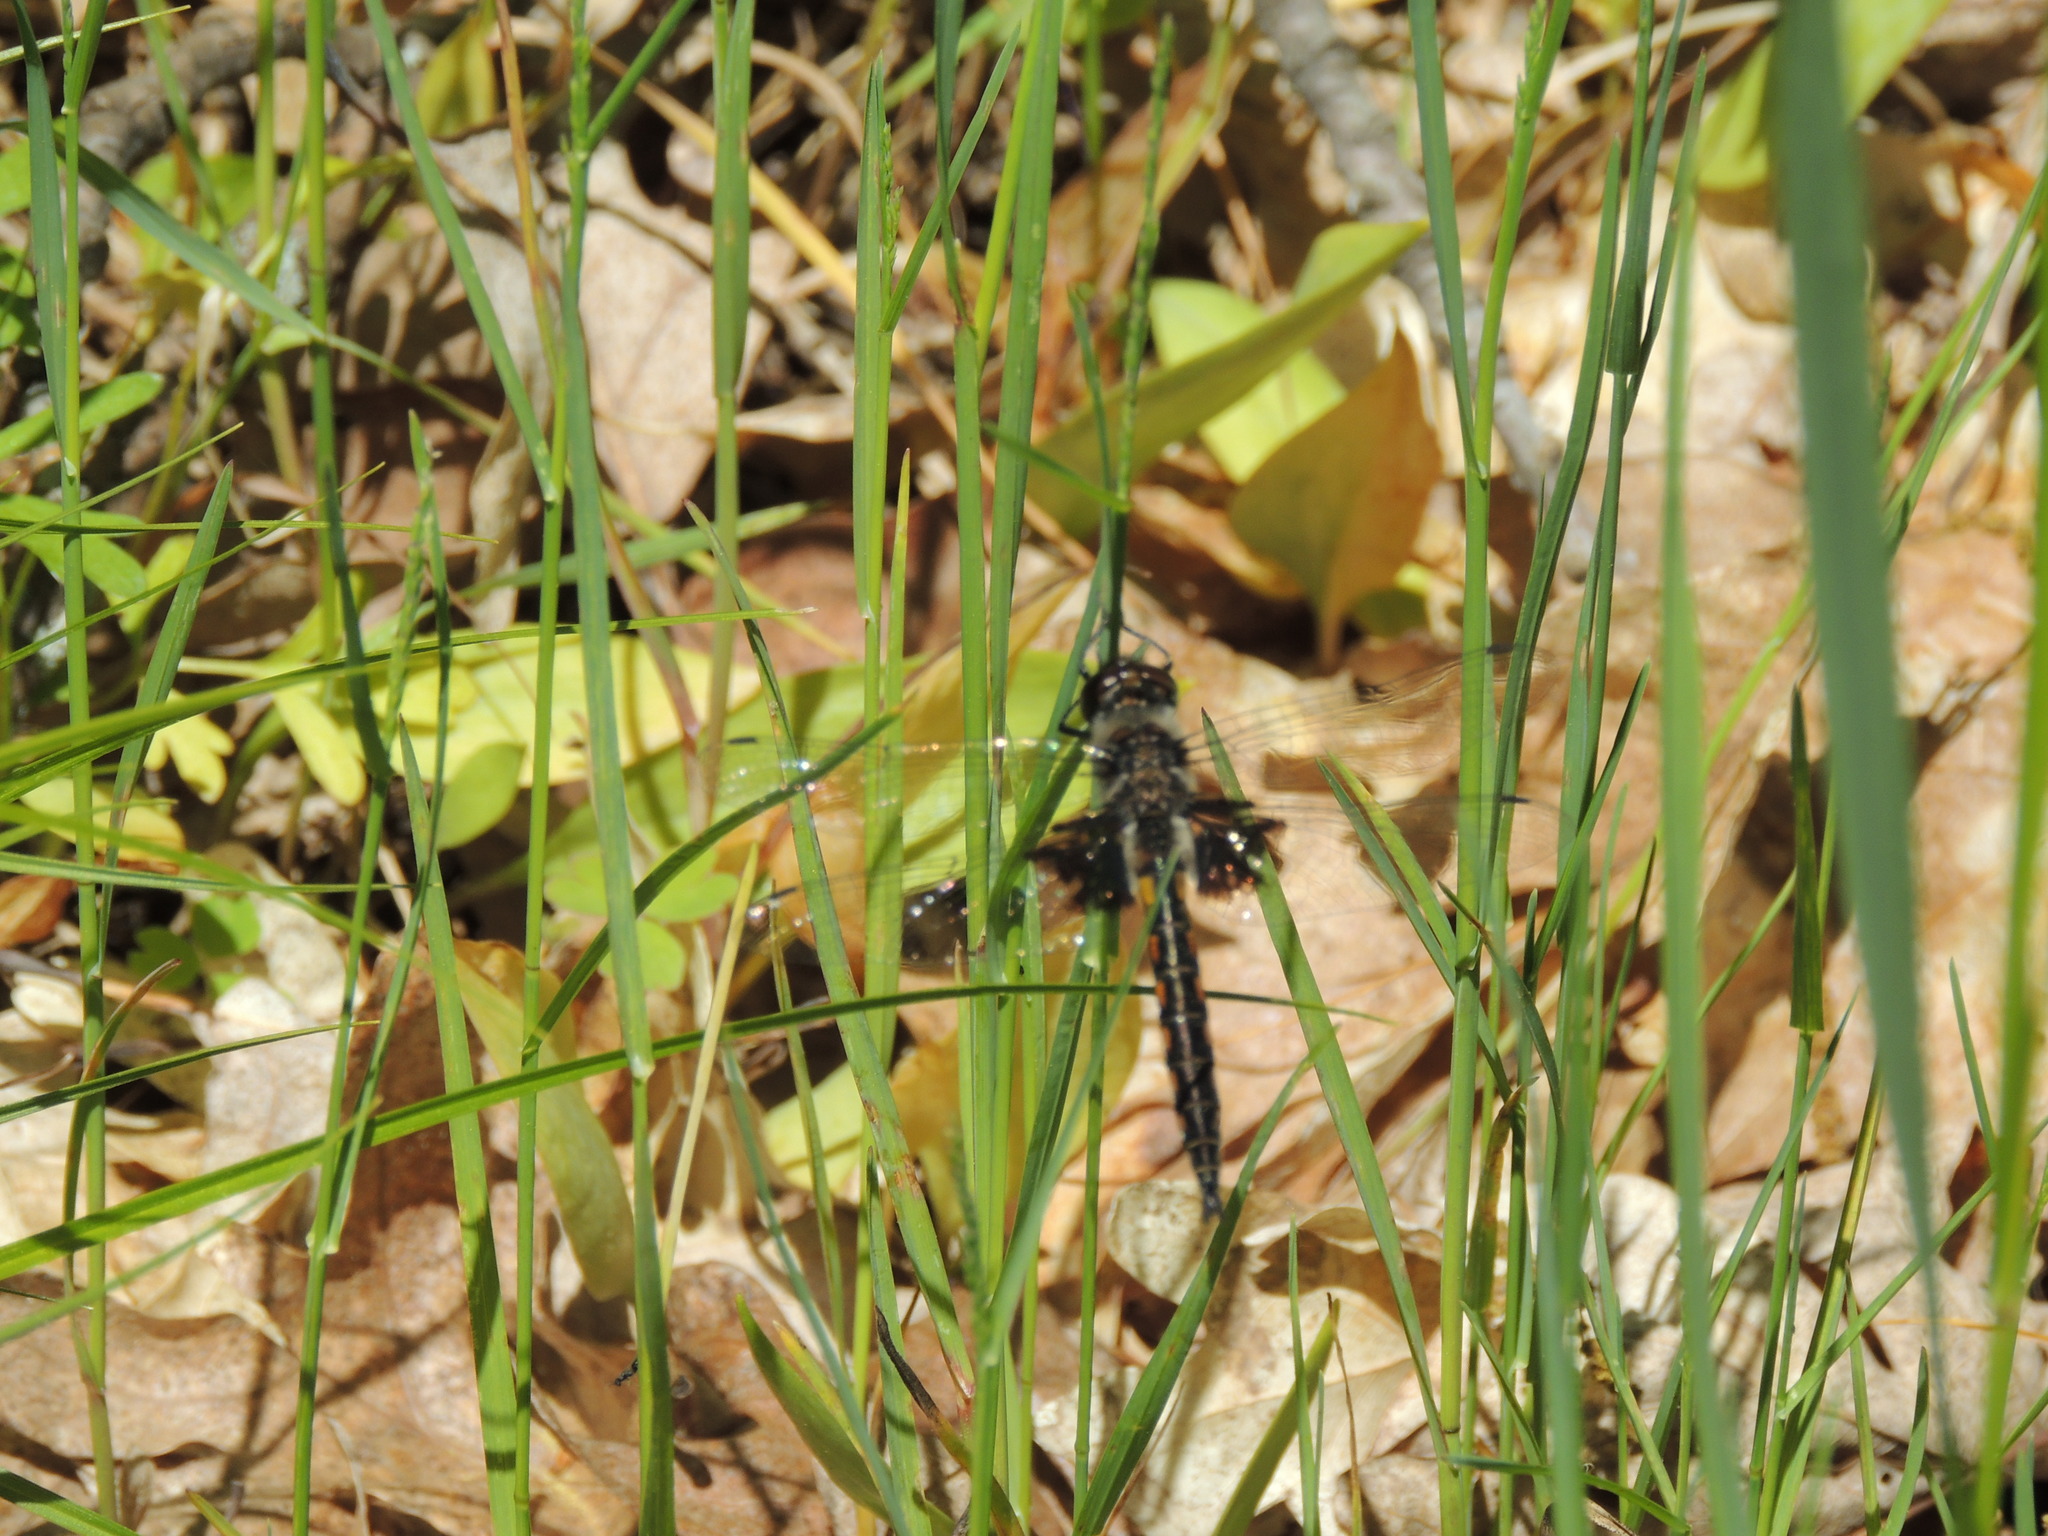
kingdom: Animalia
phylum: Arthropoda
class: Insecta
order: Odonata
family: Corduliidae
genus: Epitheca
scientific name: Epitheca cynosura
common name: Common baskettail
